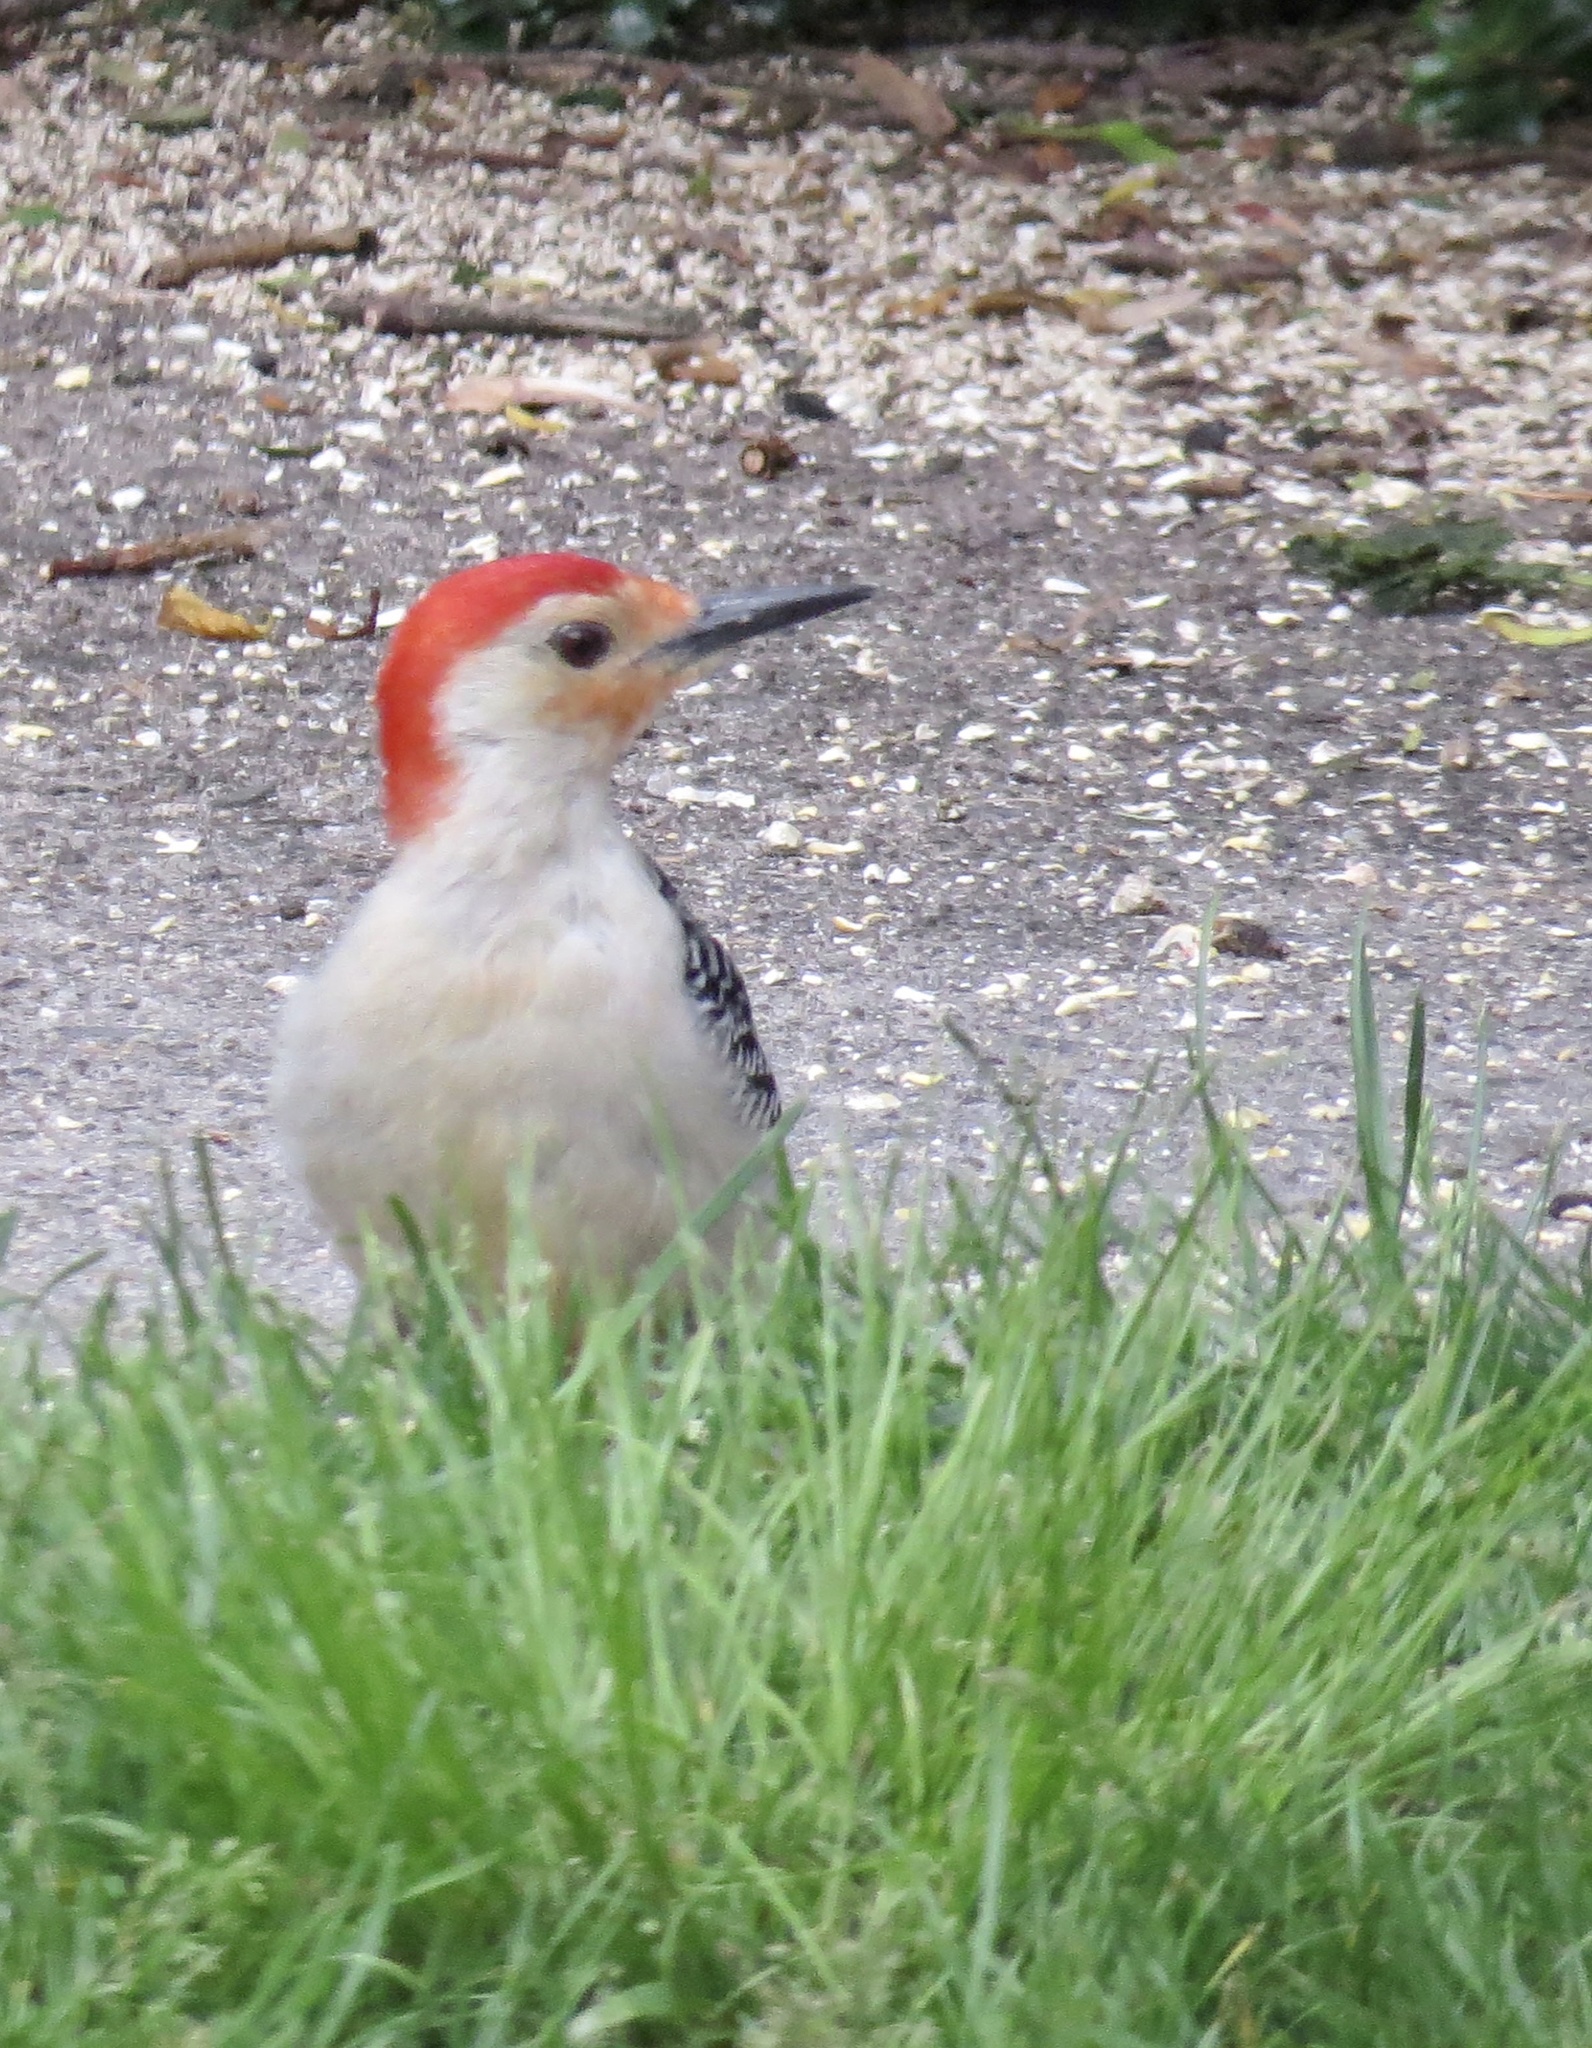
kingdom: Animalia
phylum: Chordata
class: Aves
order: Piciformes
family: Picidae
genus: Melanerpes
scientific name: Melanerpes carolinus
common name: Red-bellied woodpecker
